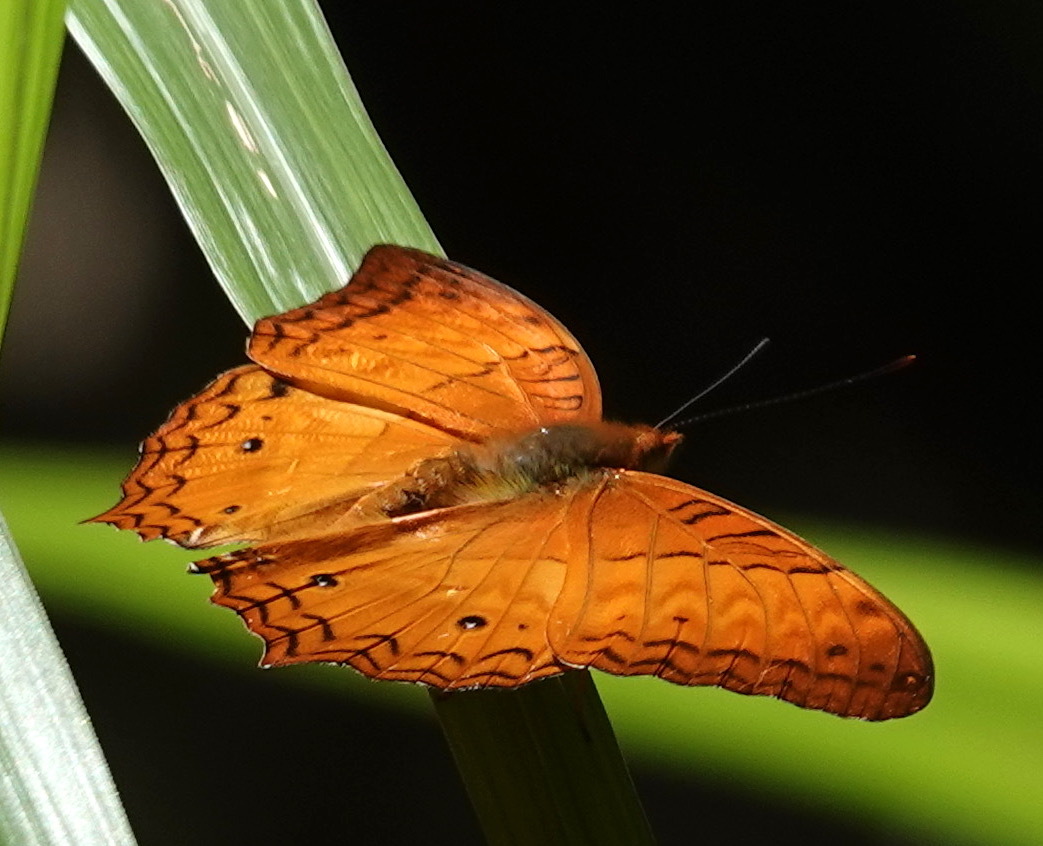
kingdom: Animalia
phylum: Arthropoda
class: Insecta
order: Lepidoptera
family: Nymphalidae
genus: Vindula
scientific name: Vindula erota
